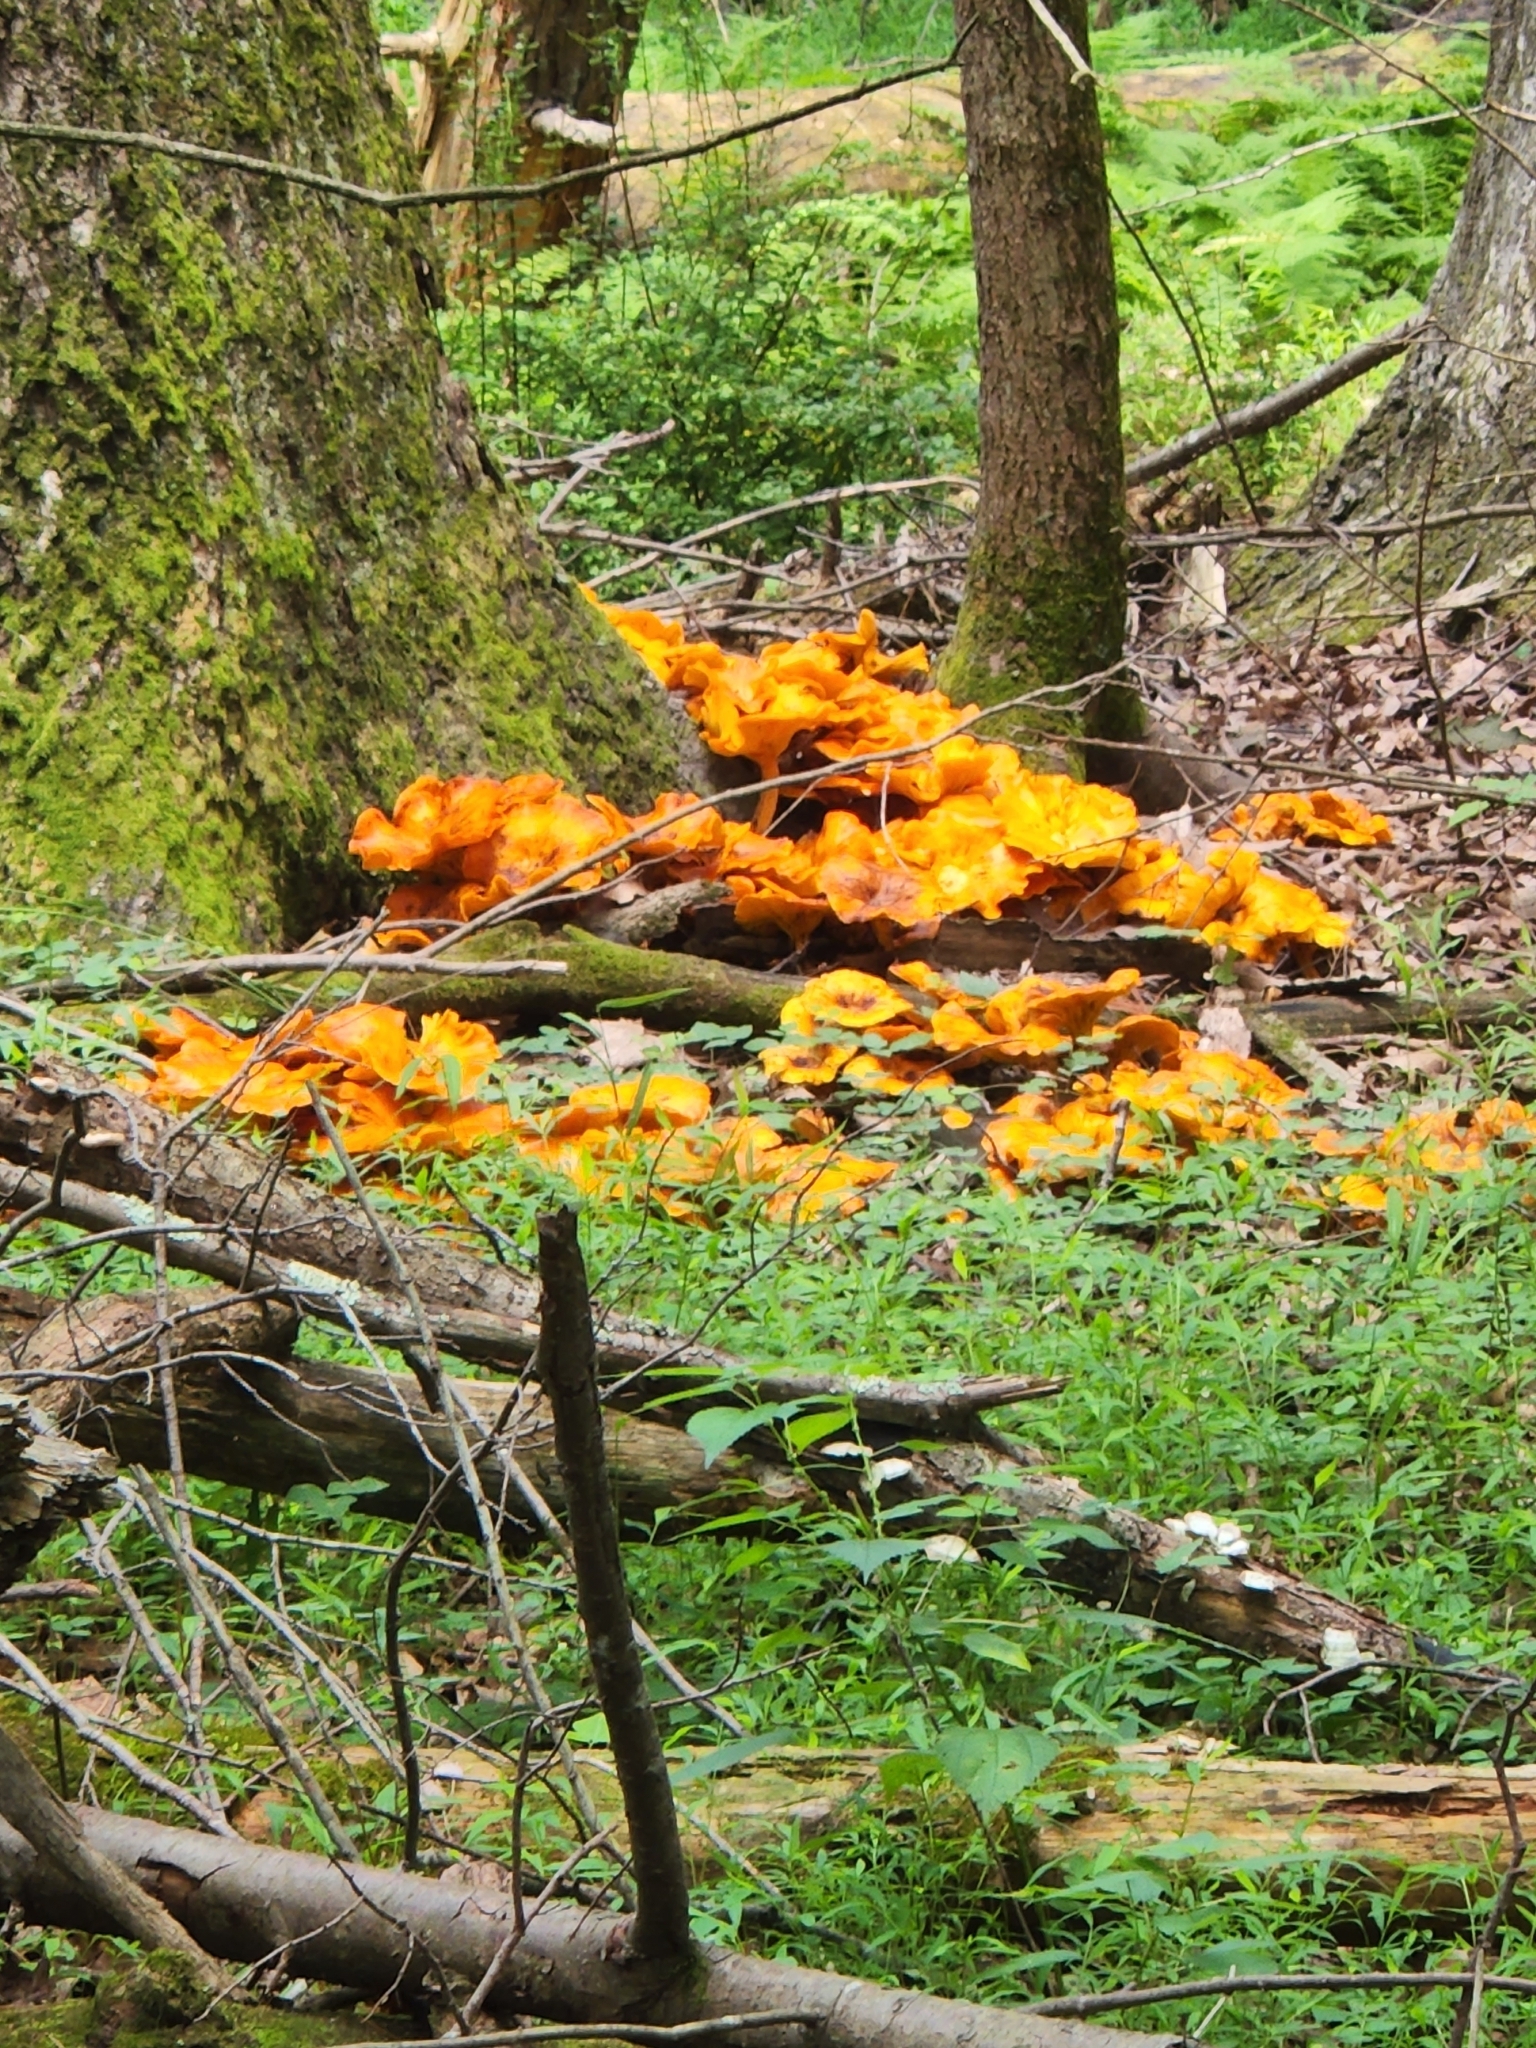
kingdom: Fungi
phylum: Basidiomycota
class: Agaricomycetes
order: Agaricales
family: Omphalotaceae
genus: Omphalotus
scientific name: Omphalotus illudens
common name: Jack o lantern
